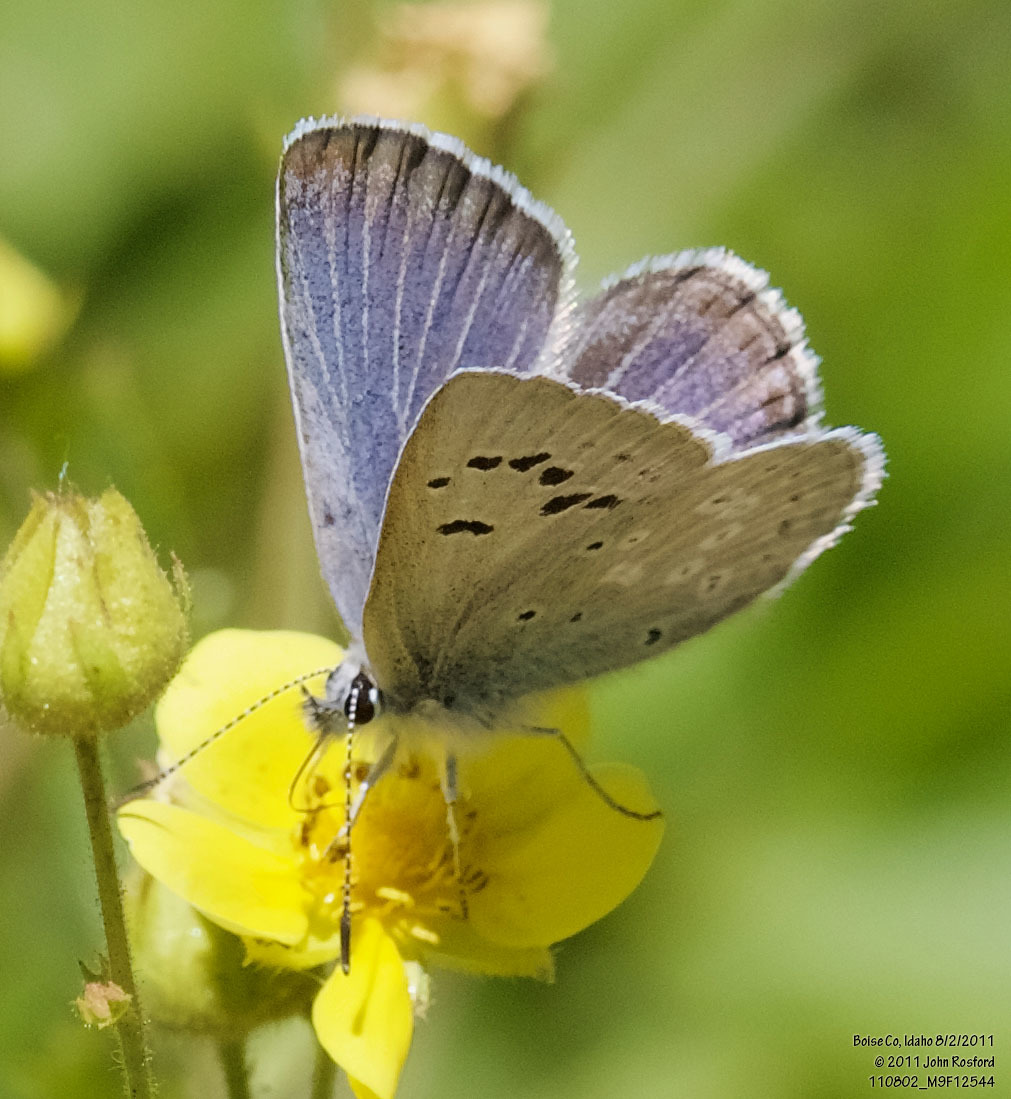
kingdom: Animalia
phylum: Arthropoda
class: Insecta
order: Lepidoptera
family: Lycaenidae
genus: Icaricia
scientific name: Icaricia icarioides
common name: Boisduval's blue
